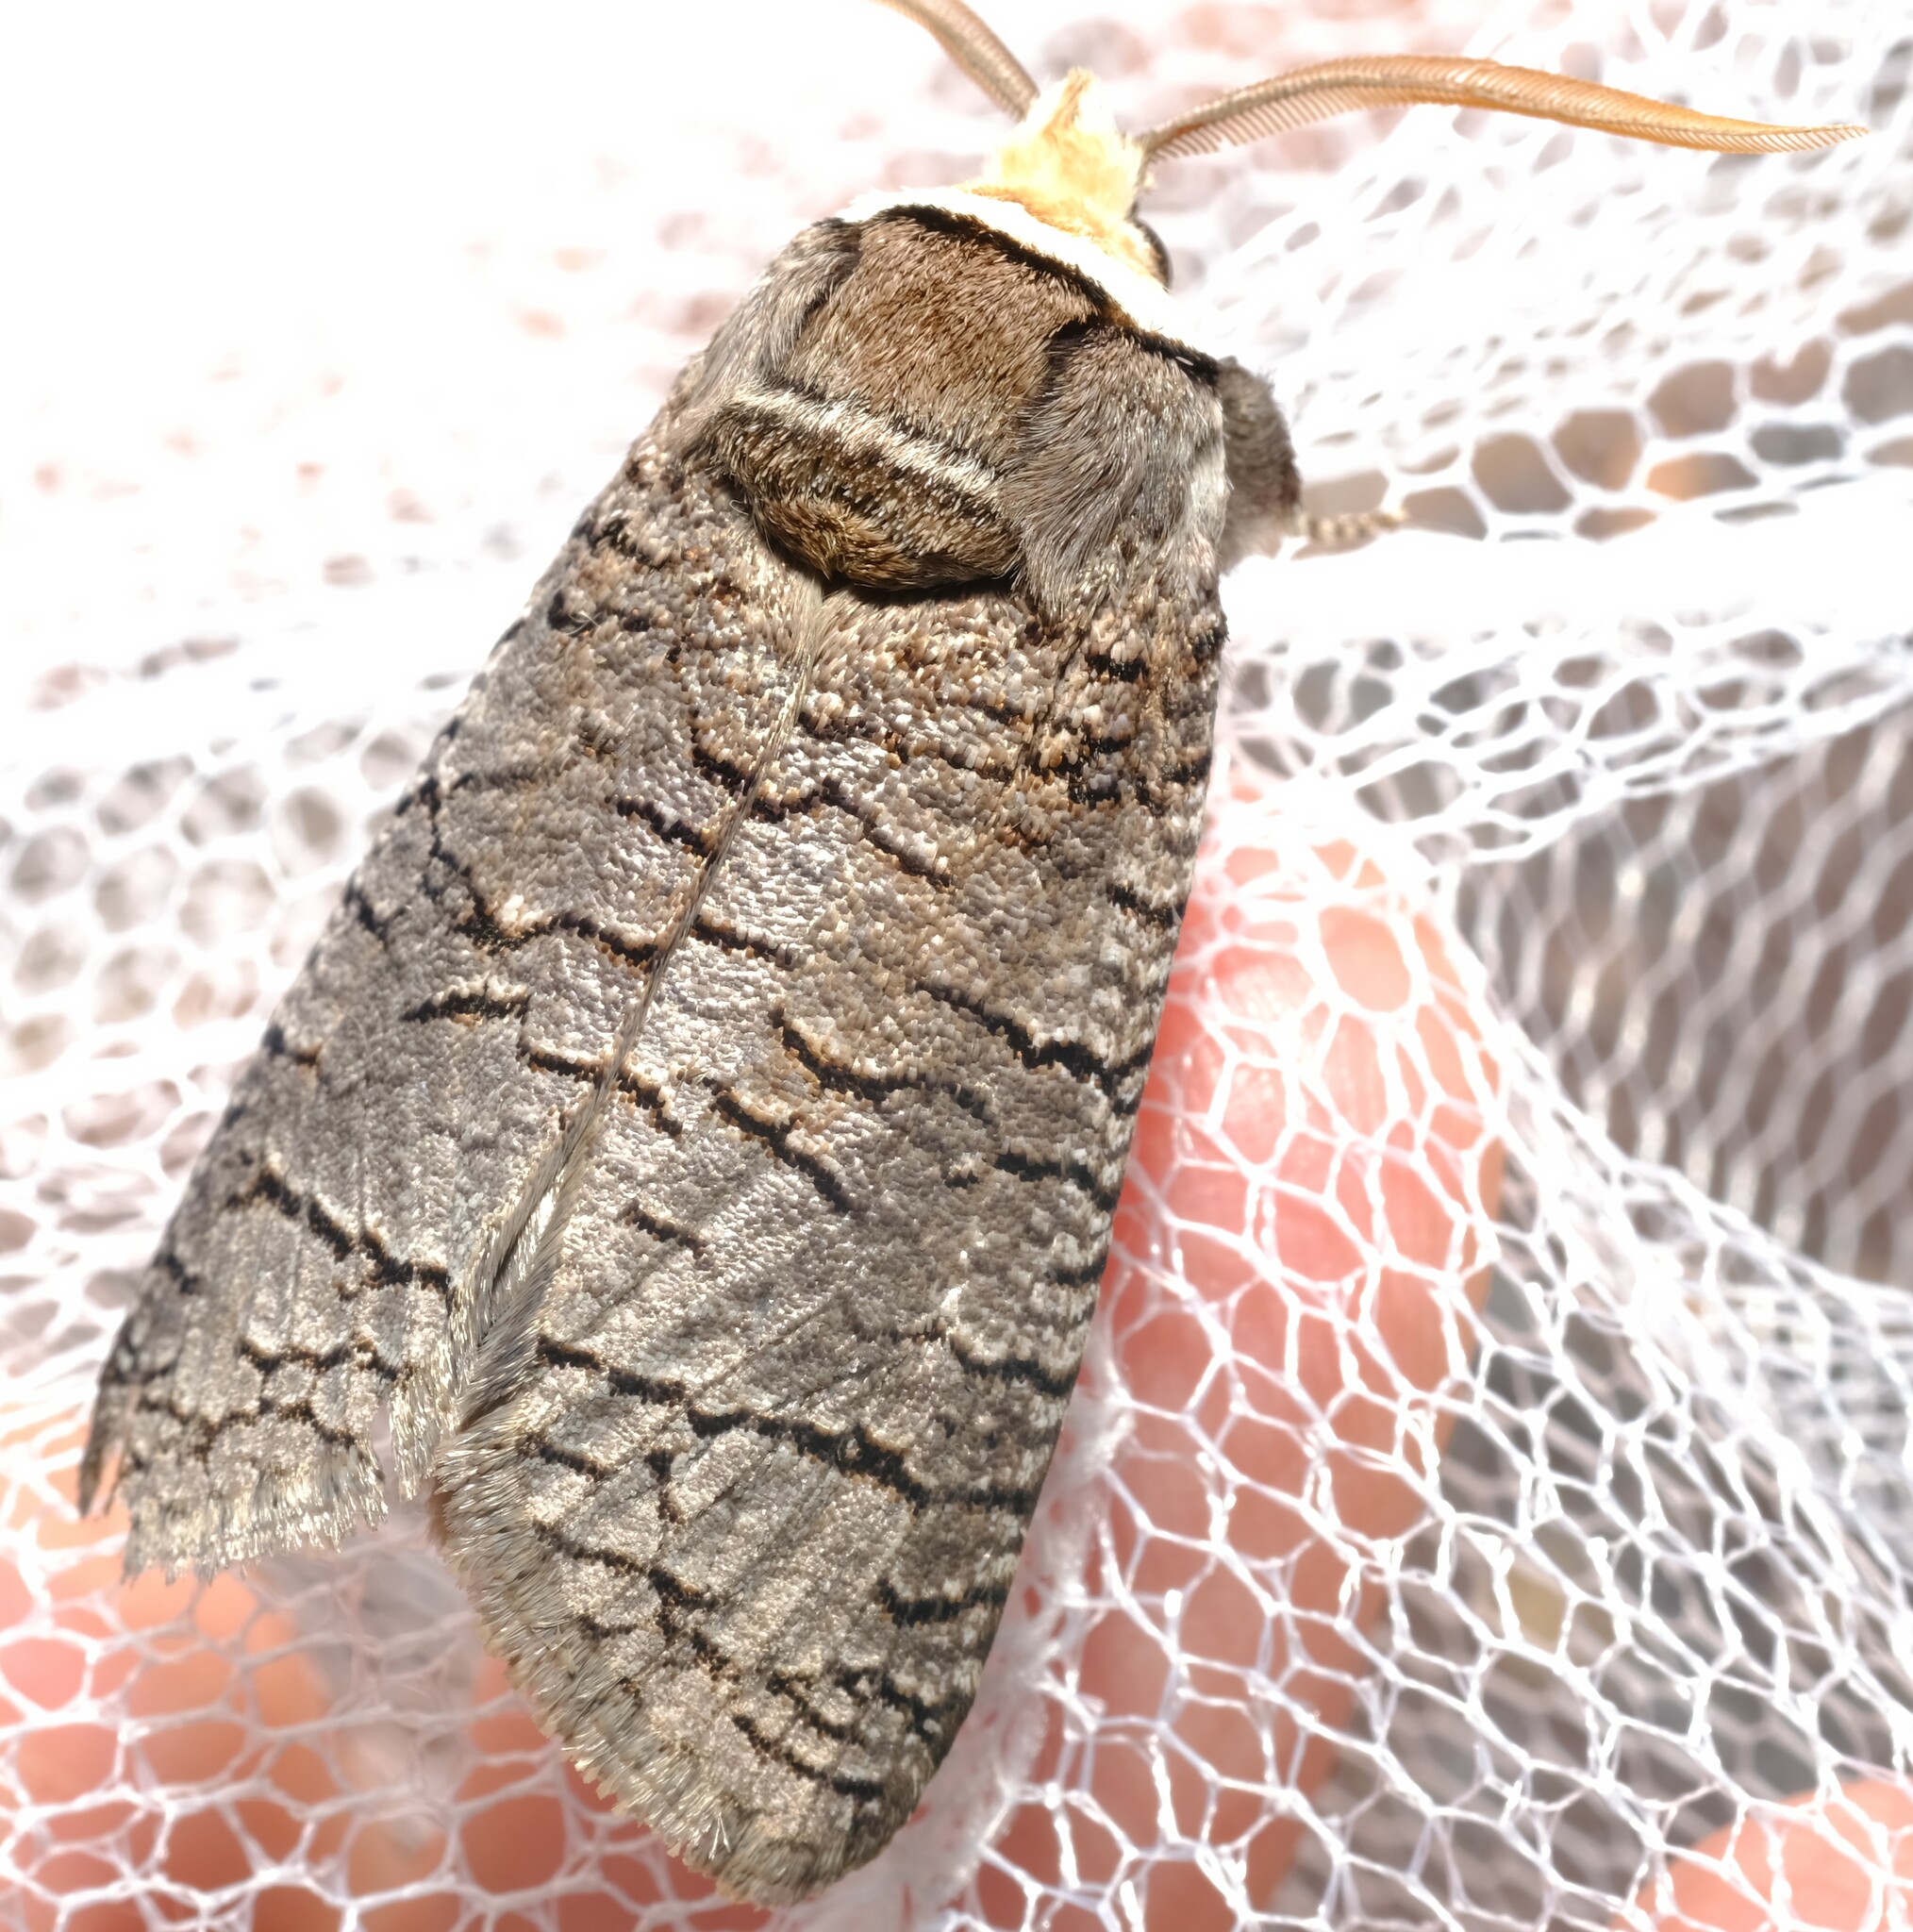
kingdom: Animalia
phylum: Arthropoda
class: Insecta
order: Lepidoptera
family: Cossidae
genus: Zyganisus
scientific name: Zyganisus caliginosus
